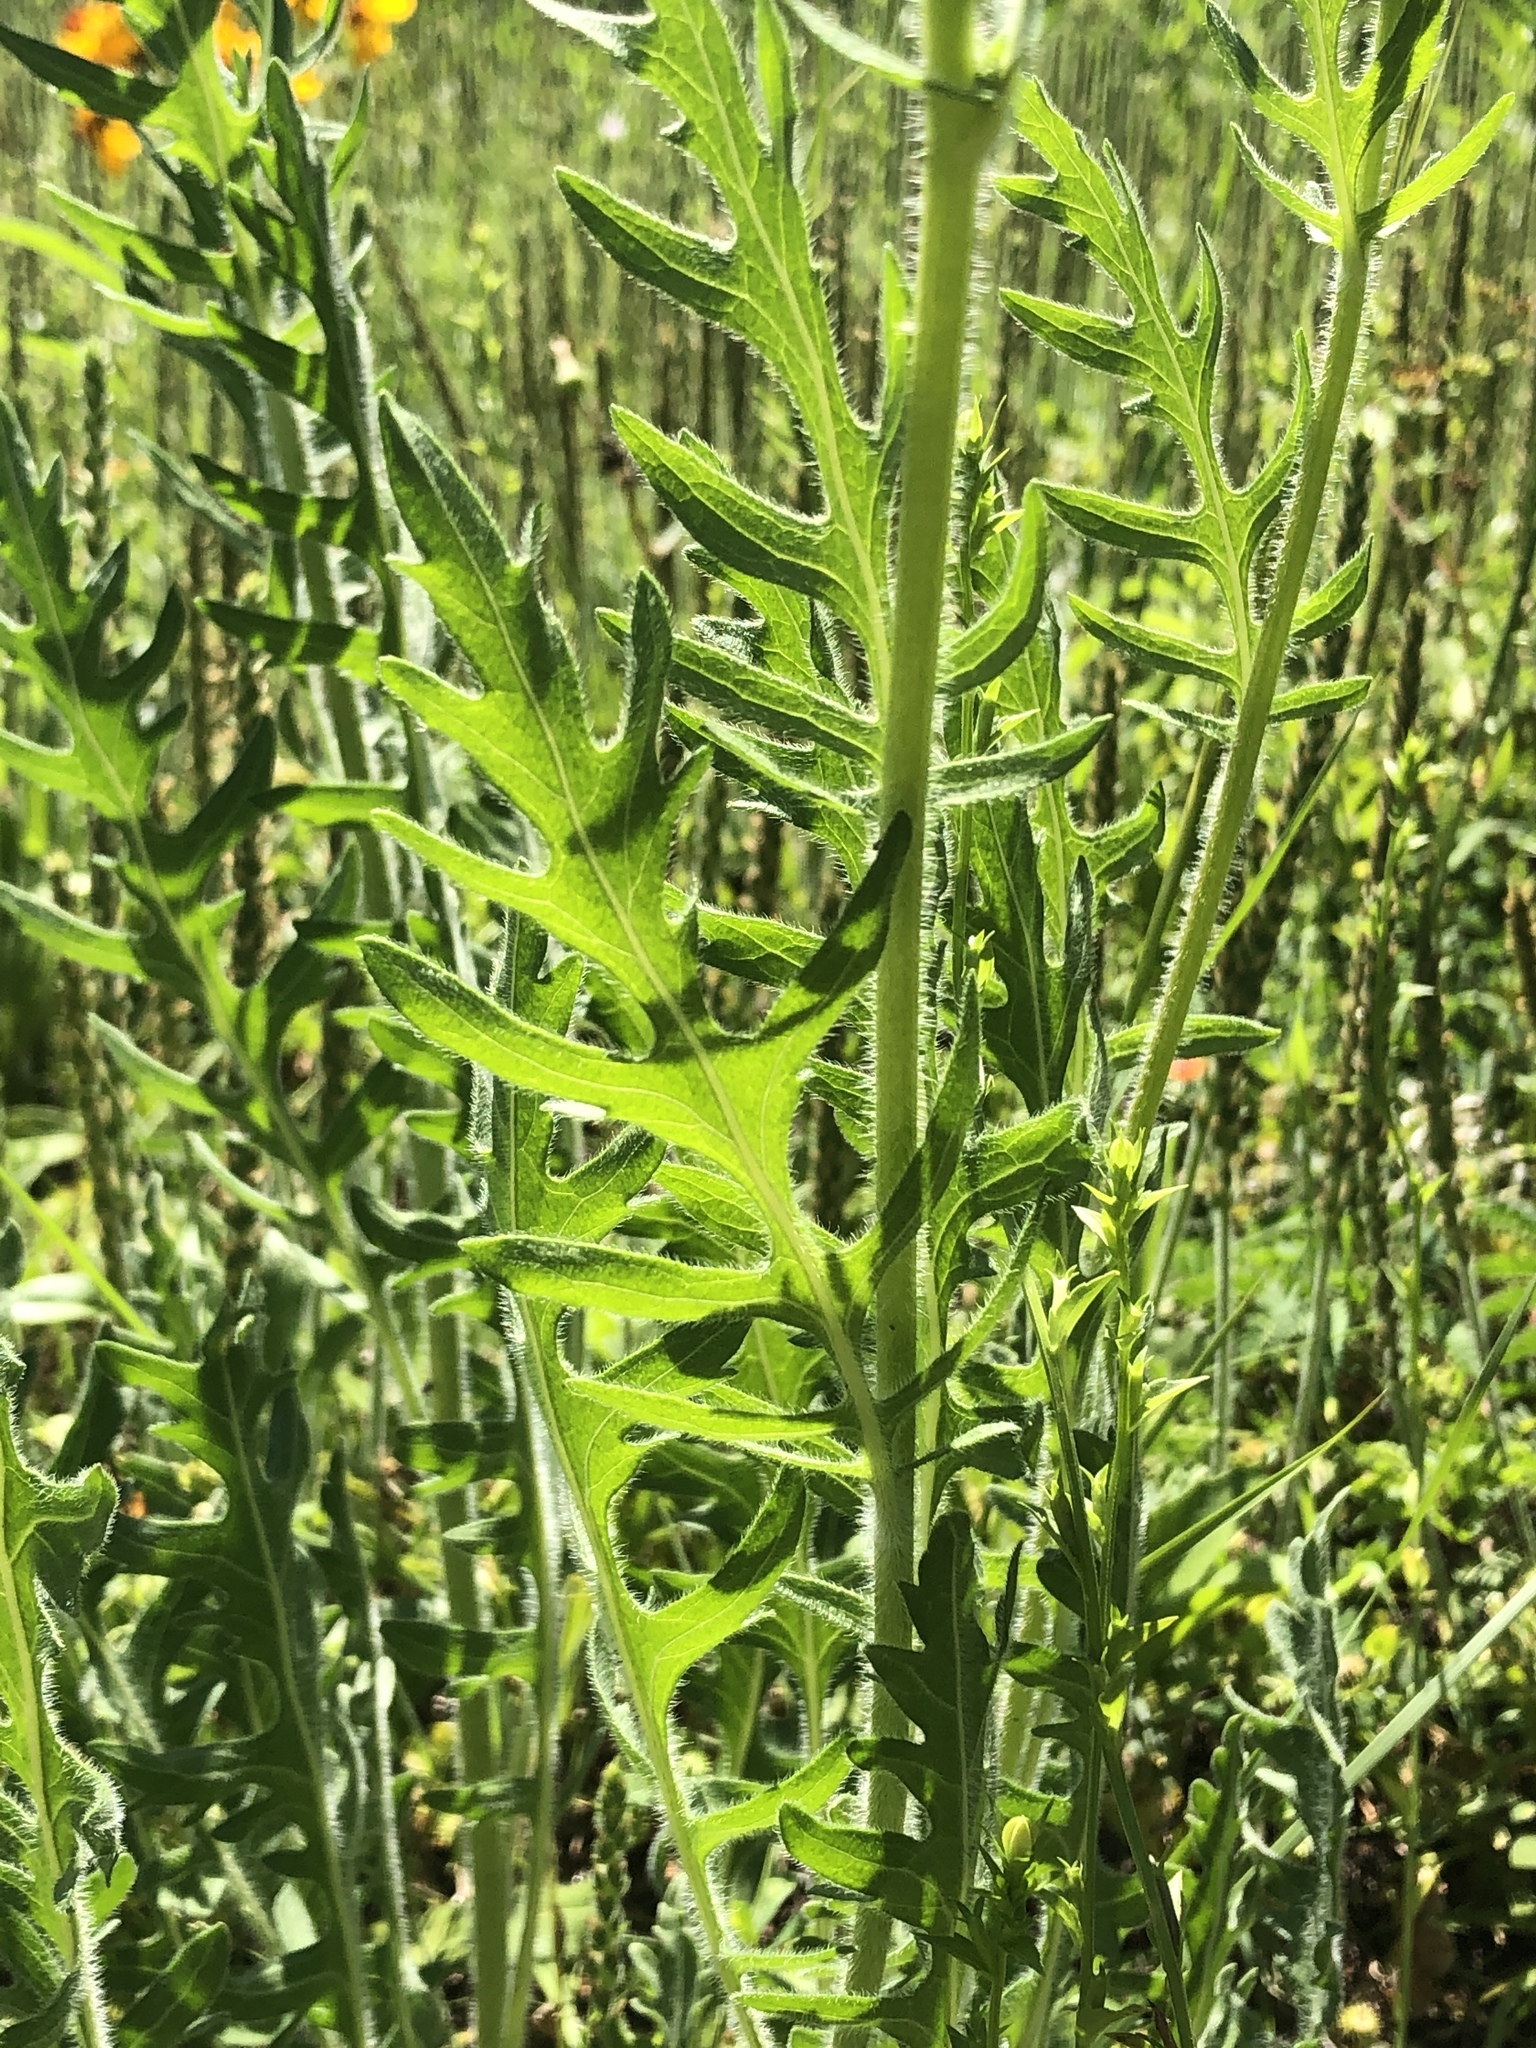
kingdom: Plantae
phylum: Tracheophyta
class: Magnoliopsida
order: Asterales
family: Asteraceae
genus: Engelmannia
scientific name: Engelmannia peristenia
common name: Engelmann's daisy
